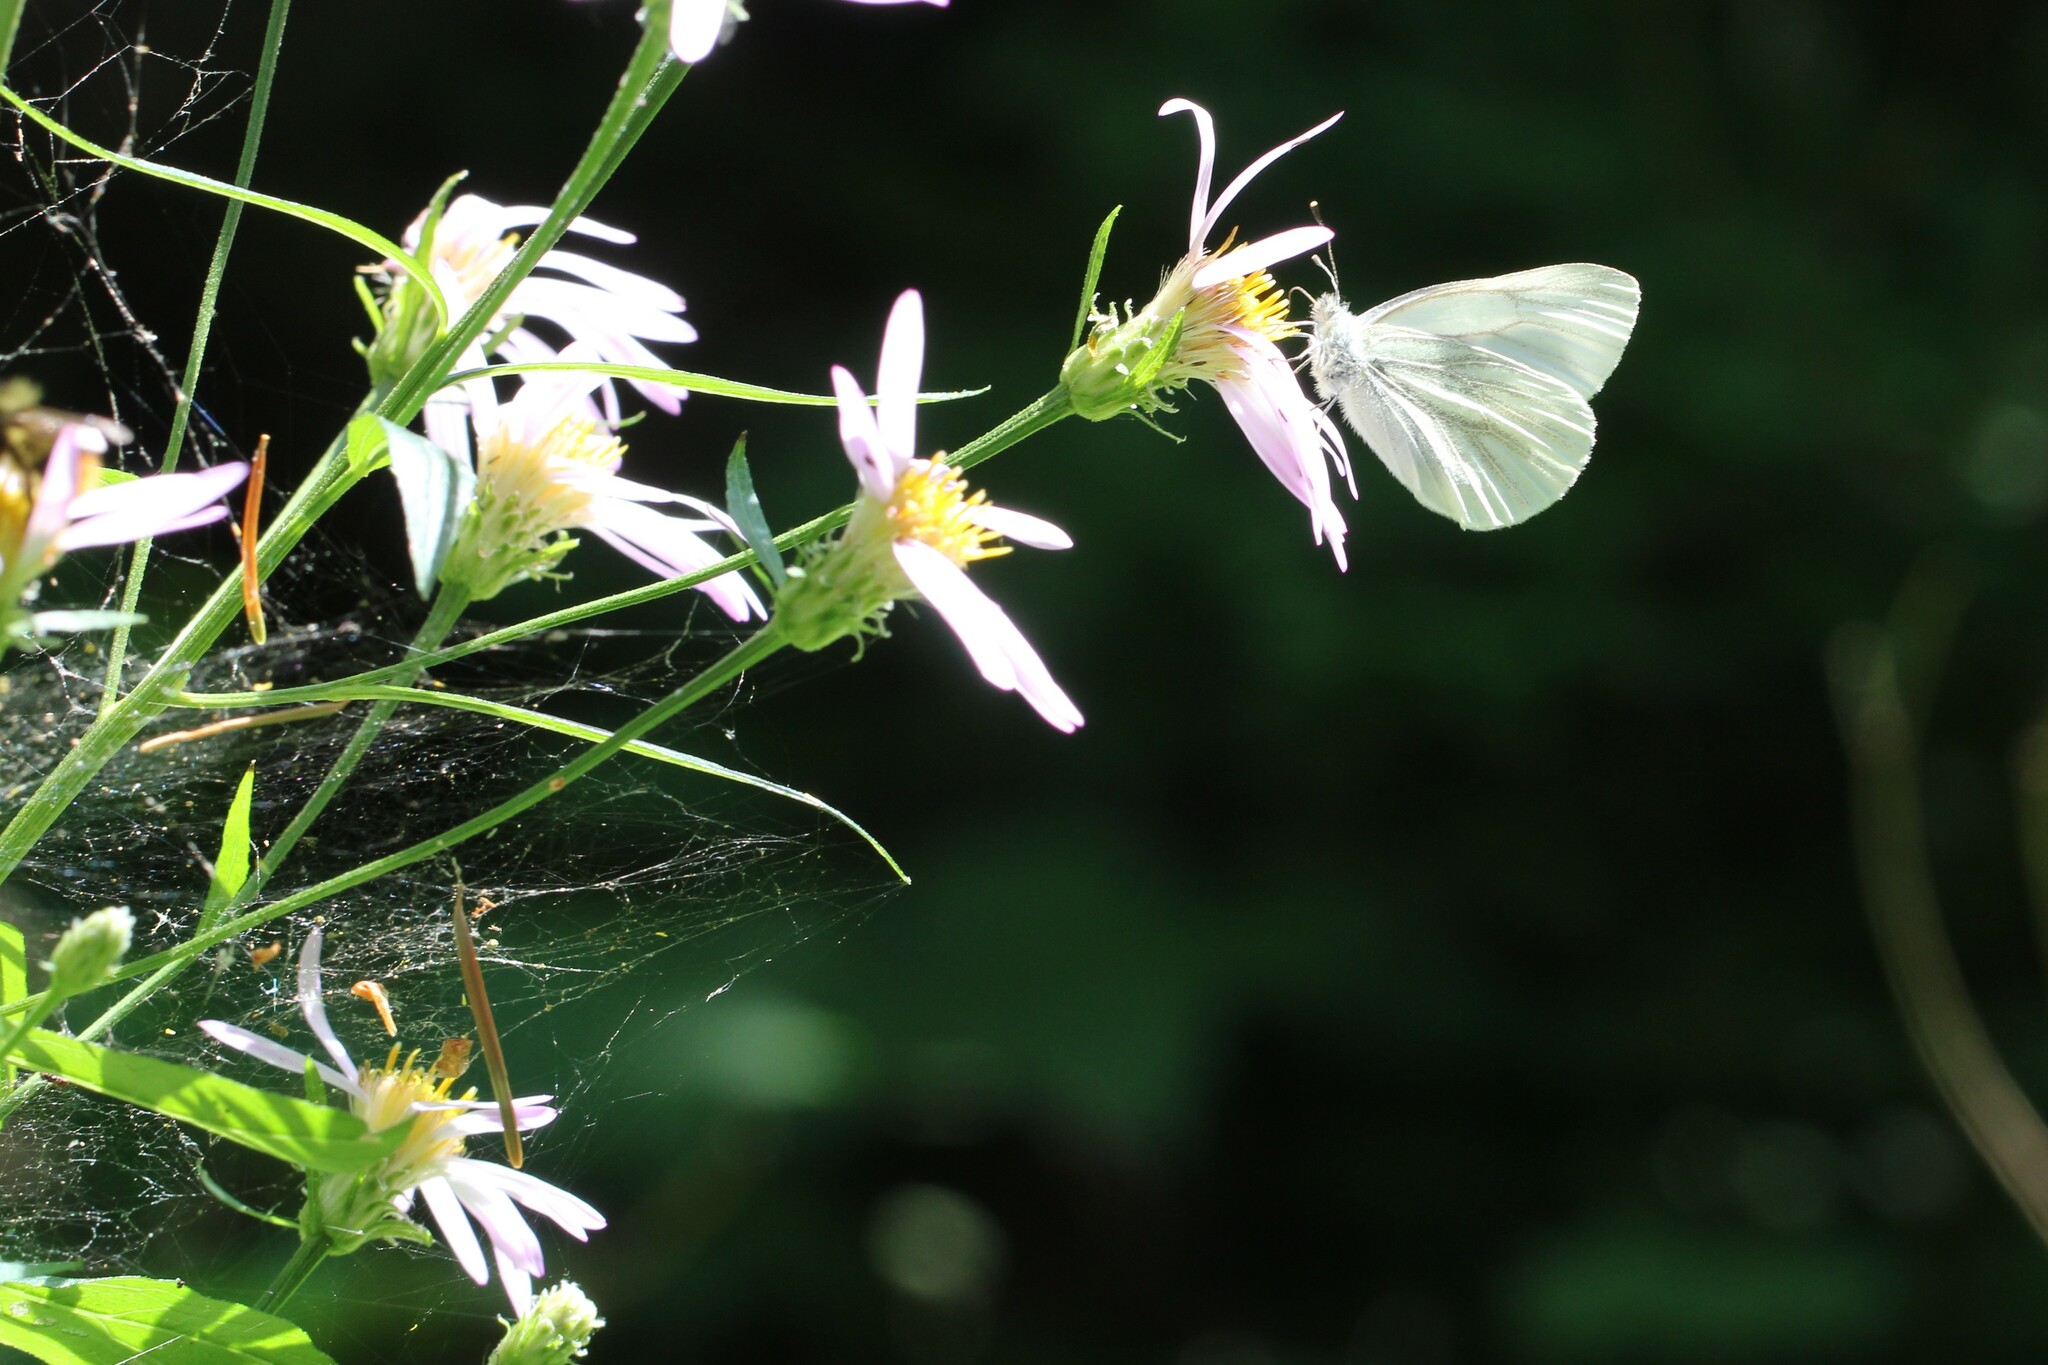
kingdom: Animalia
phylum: Arthropoda
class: Insecta
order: Lepidoptera
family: Pieridae
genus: Pieris
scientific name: Pieris marginalis
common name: Margined white
